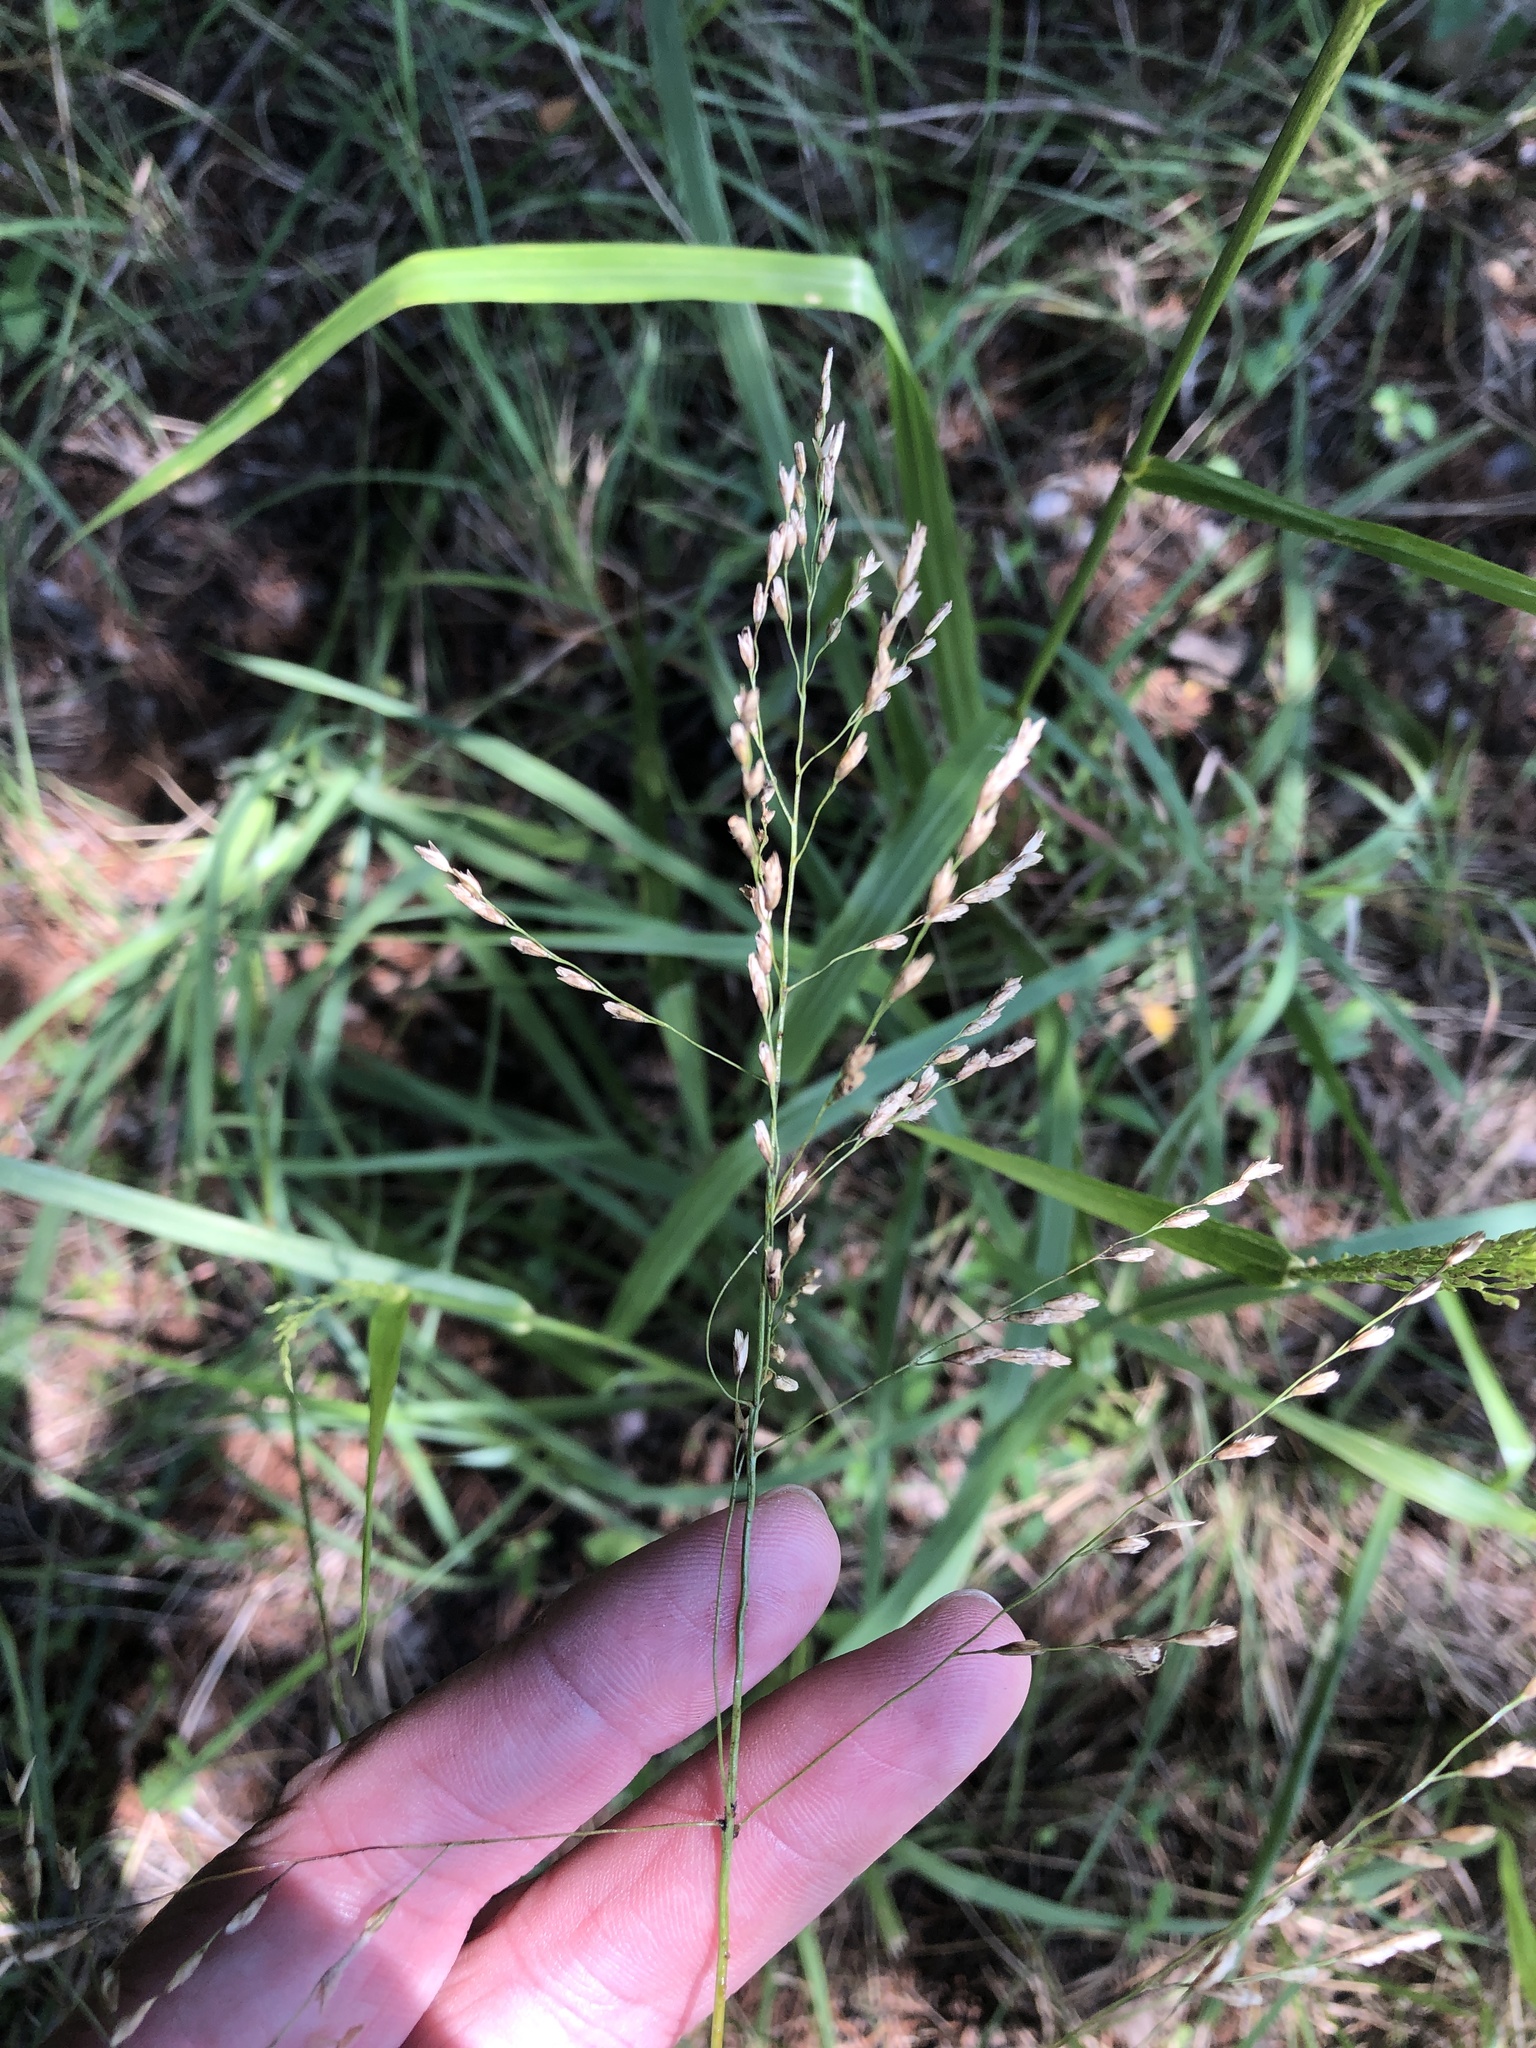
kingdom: Plantae
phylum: Tracheophyta
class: Liliopsida
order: Poales
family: Poaceae
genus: Tridens
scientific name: Tridens flavus
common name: Purpletop
